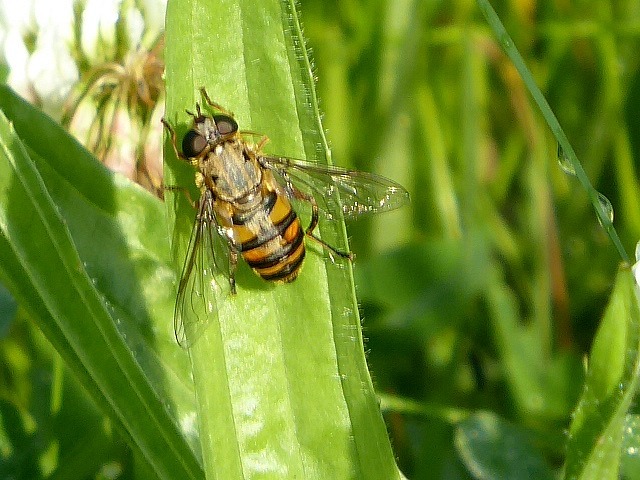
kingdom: Animalia
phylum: Arthropoda
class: Insecta
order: Diptera
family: Syrphidae
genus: Helophilus
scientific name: Helophilus fasciatus
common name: Narrow-headed marsh fly
